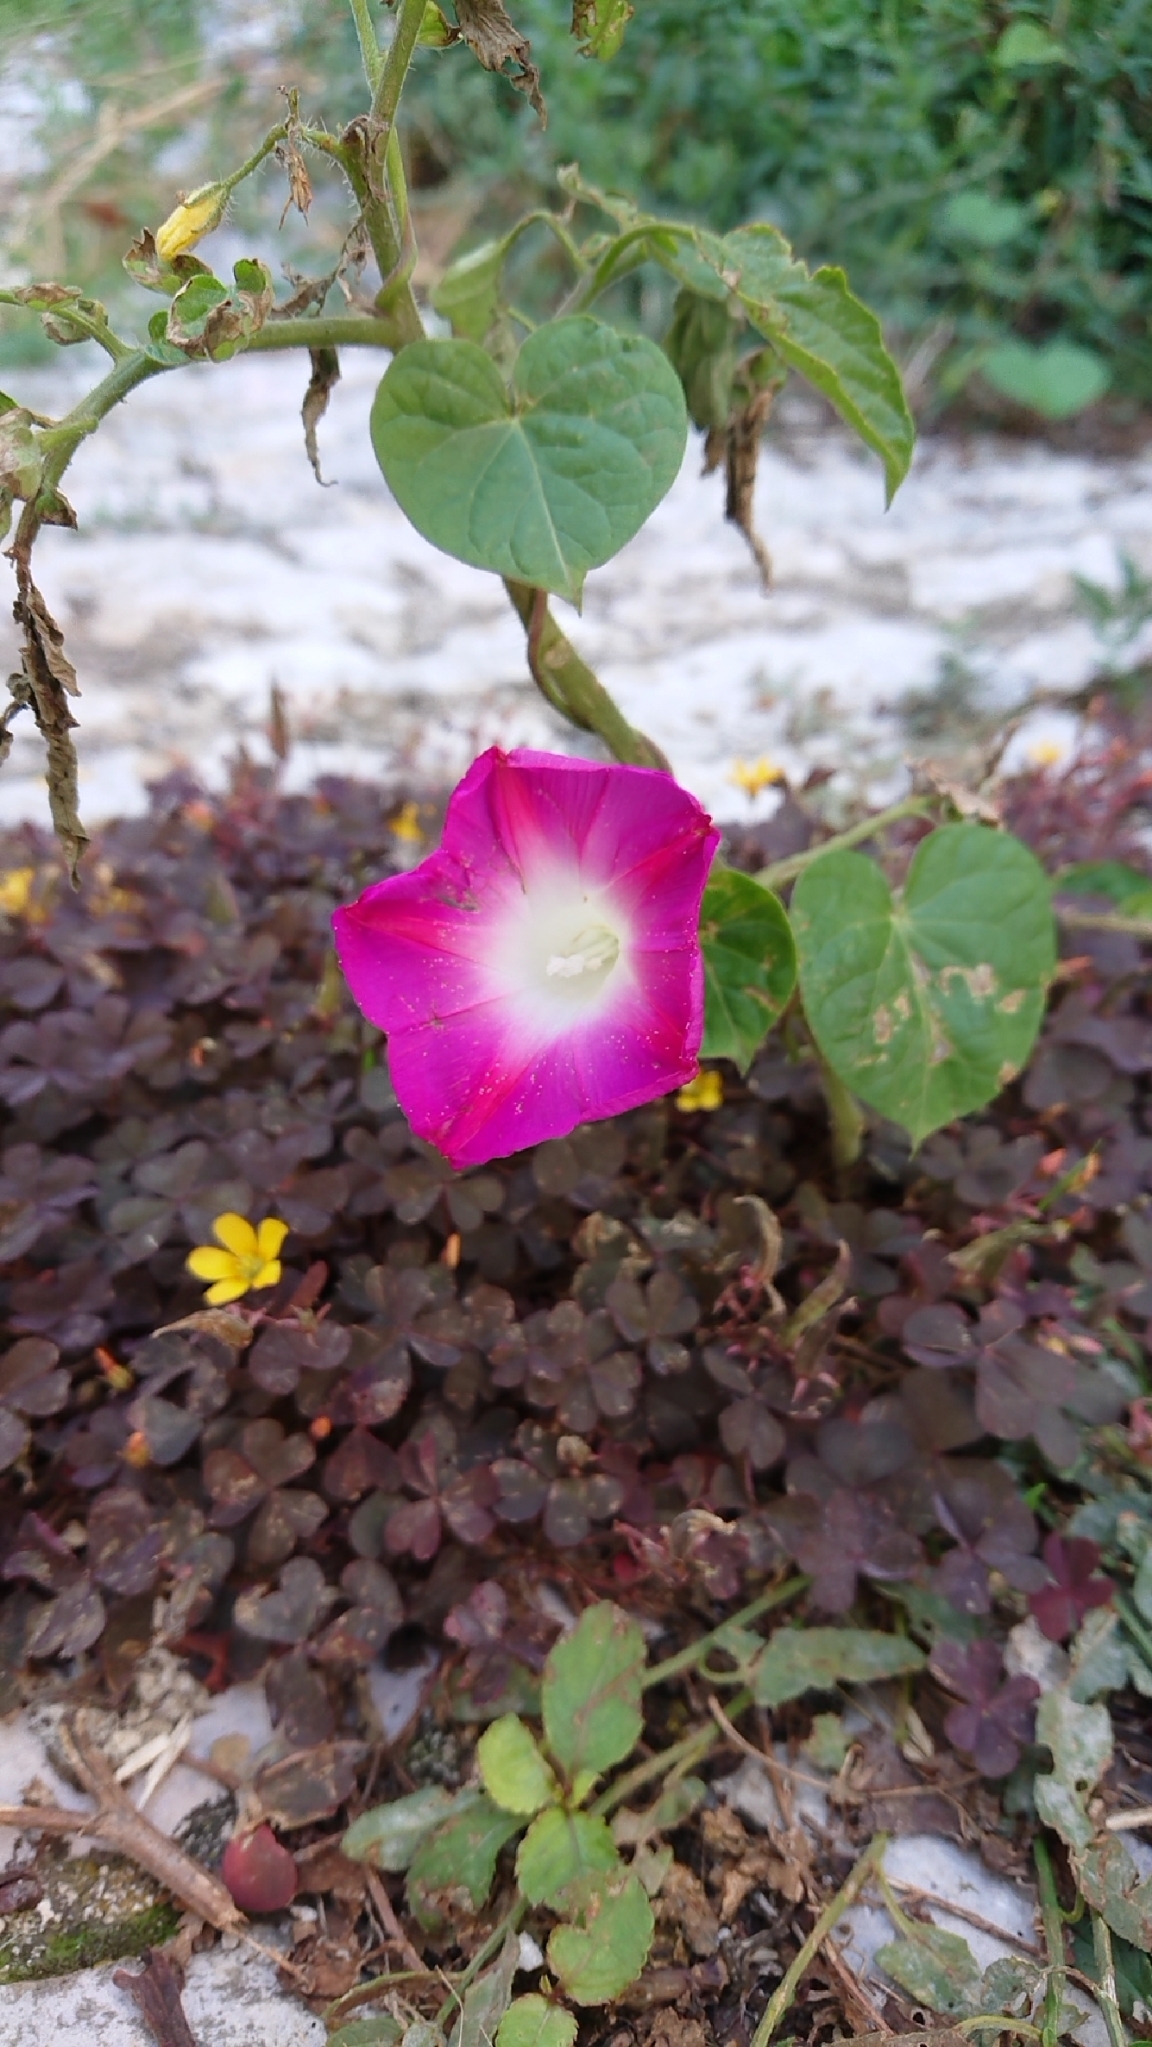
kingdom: Plantae
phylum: Tracheophyta
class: Magnoliopsida
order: Solanales
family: Convolvulaceae
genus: Ipomoea
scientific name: Ipomoea purpurea
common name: Common morning-glory
